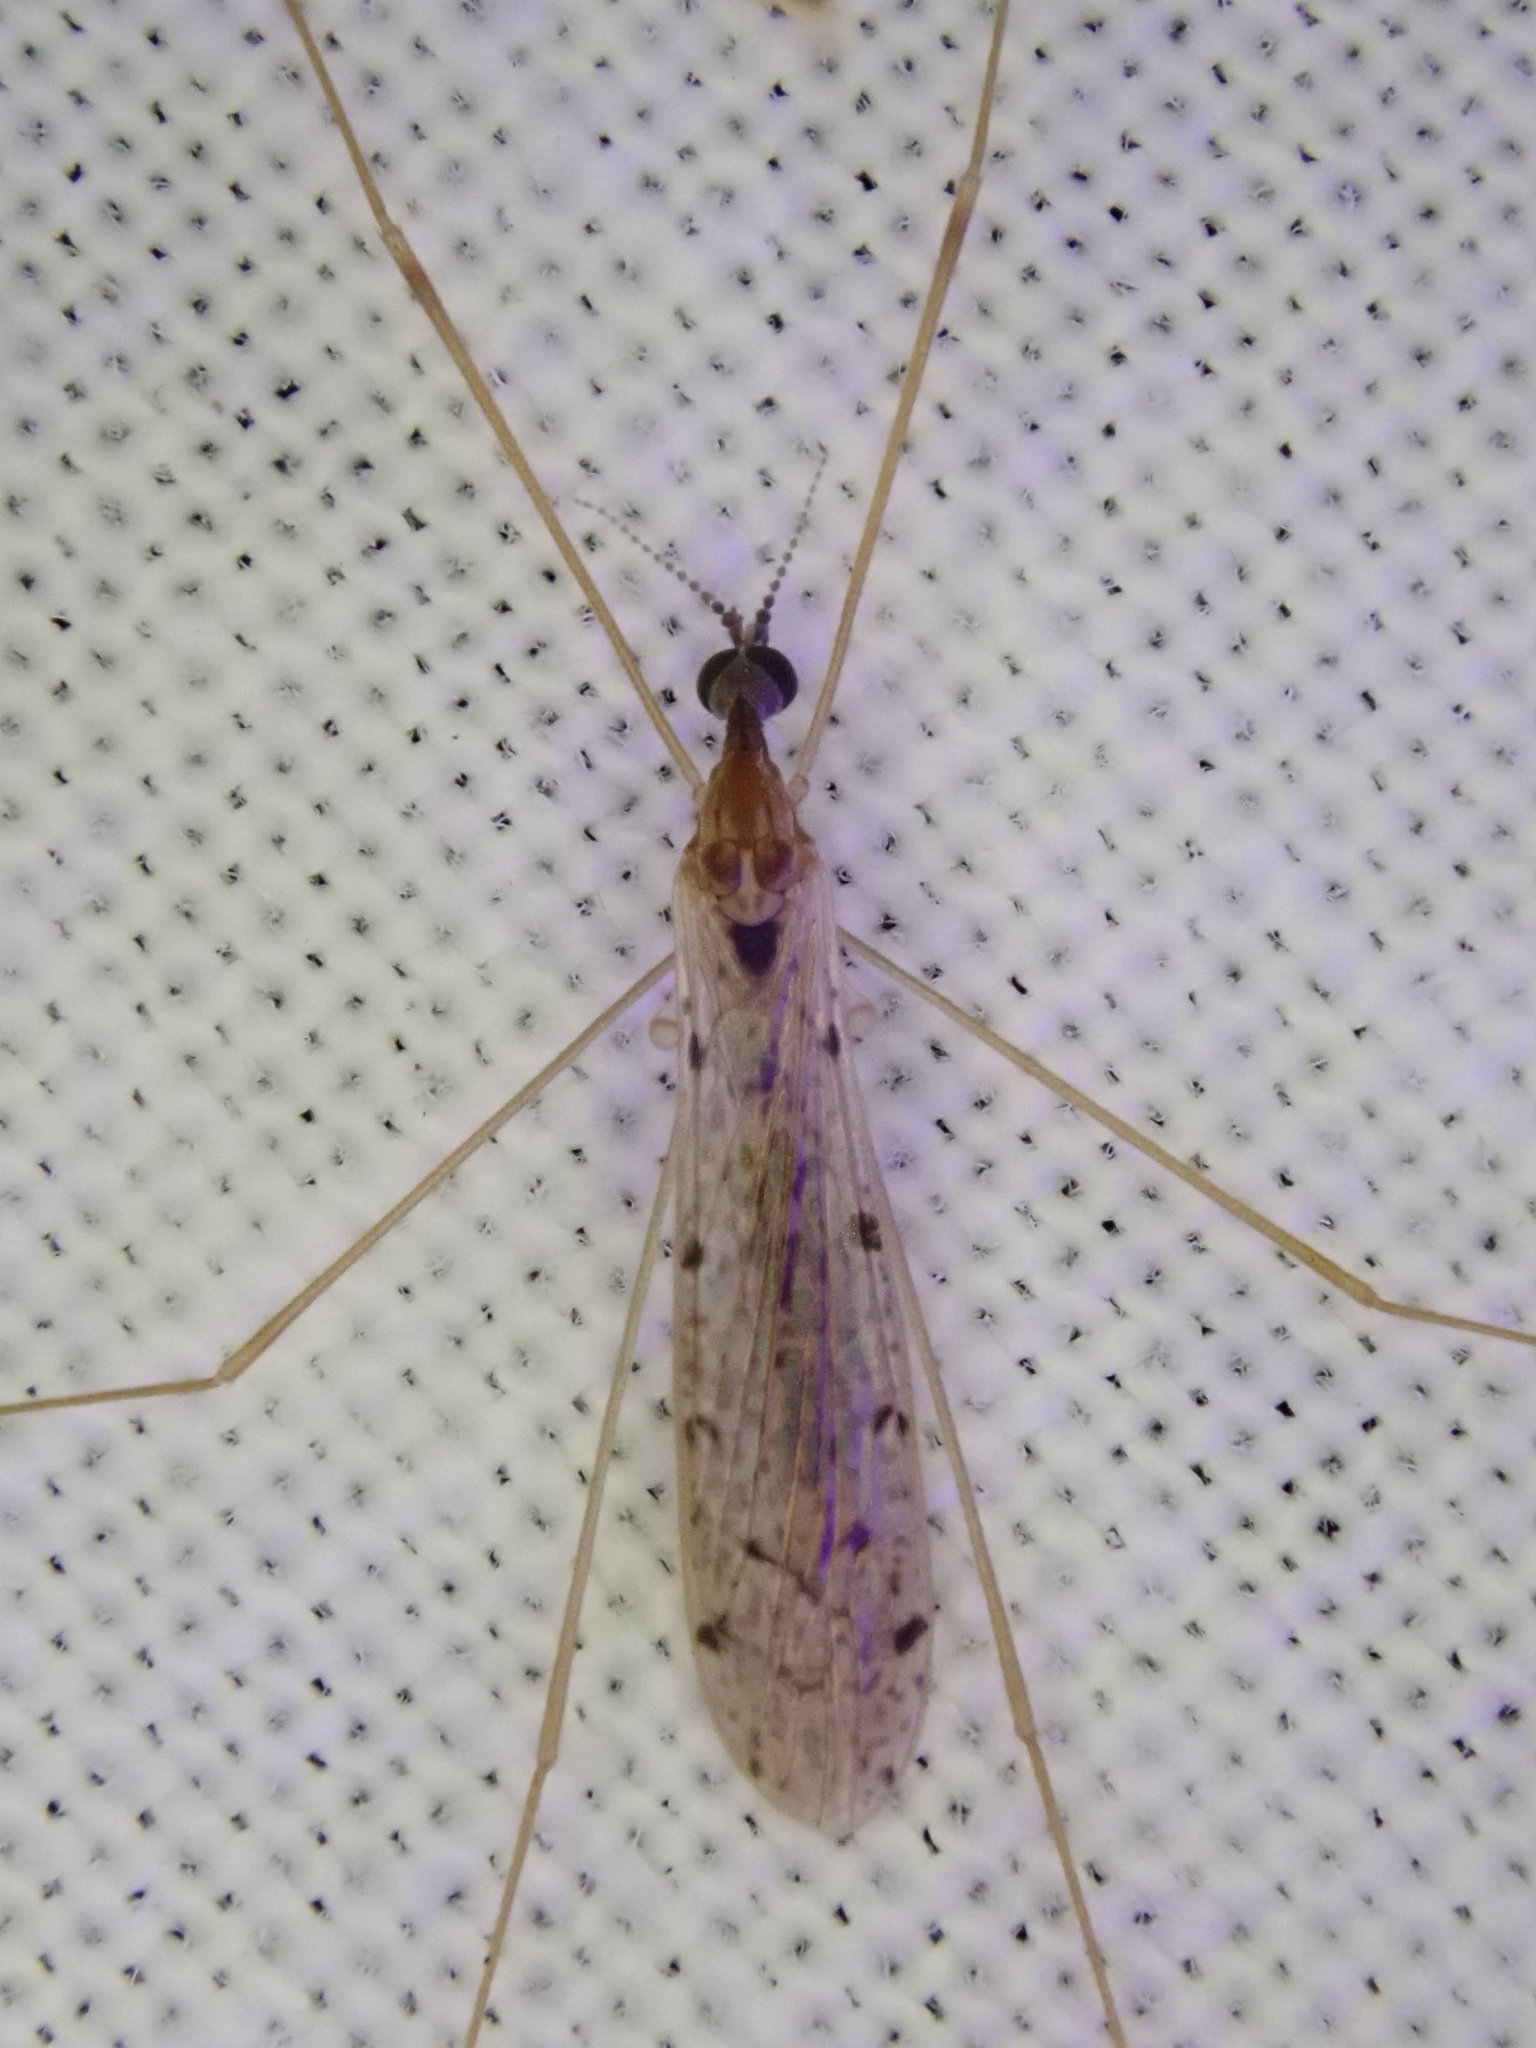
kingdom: Animalia
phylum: Arthropoda
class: Insecta
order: Diptera
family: Limoniidae
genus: Rhipidia
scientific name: Rhipidia shannoni
